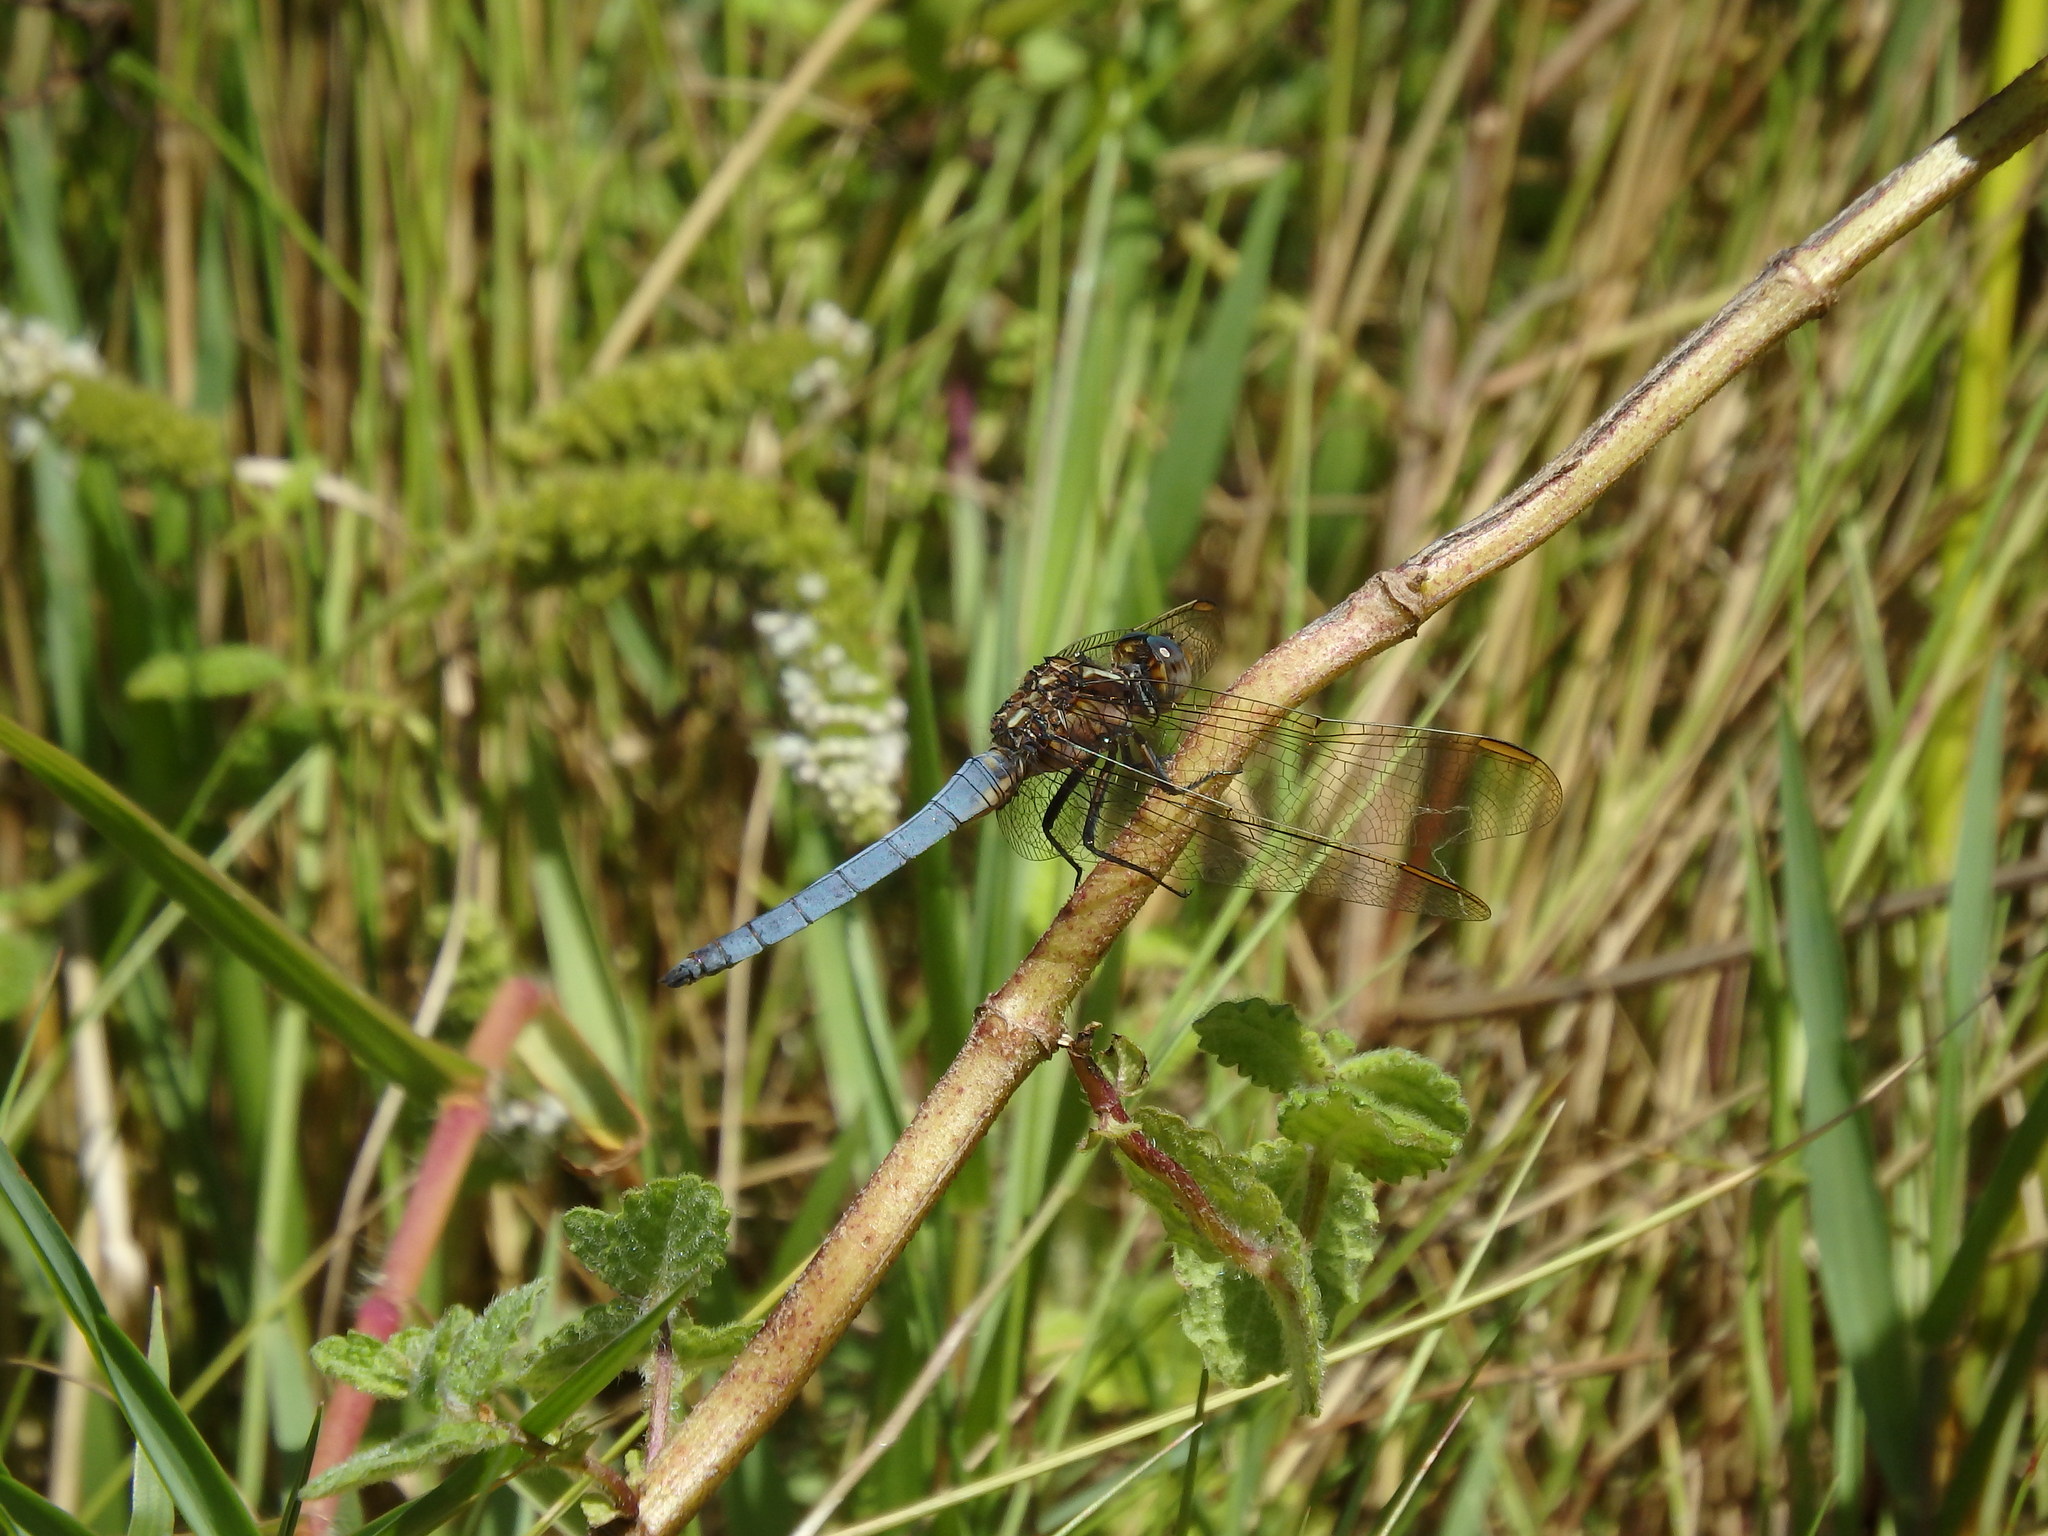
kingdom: Animalia
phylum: Arthropoda
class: Insecta
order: Odonata
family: Libellulidae
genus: Orthetrum
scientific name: Orthetrum coerulescens
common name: Keeled skimmer
